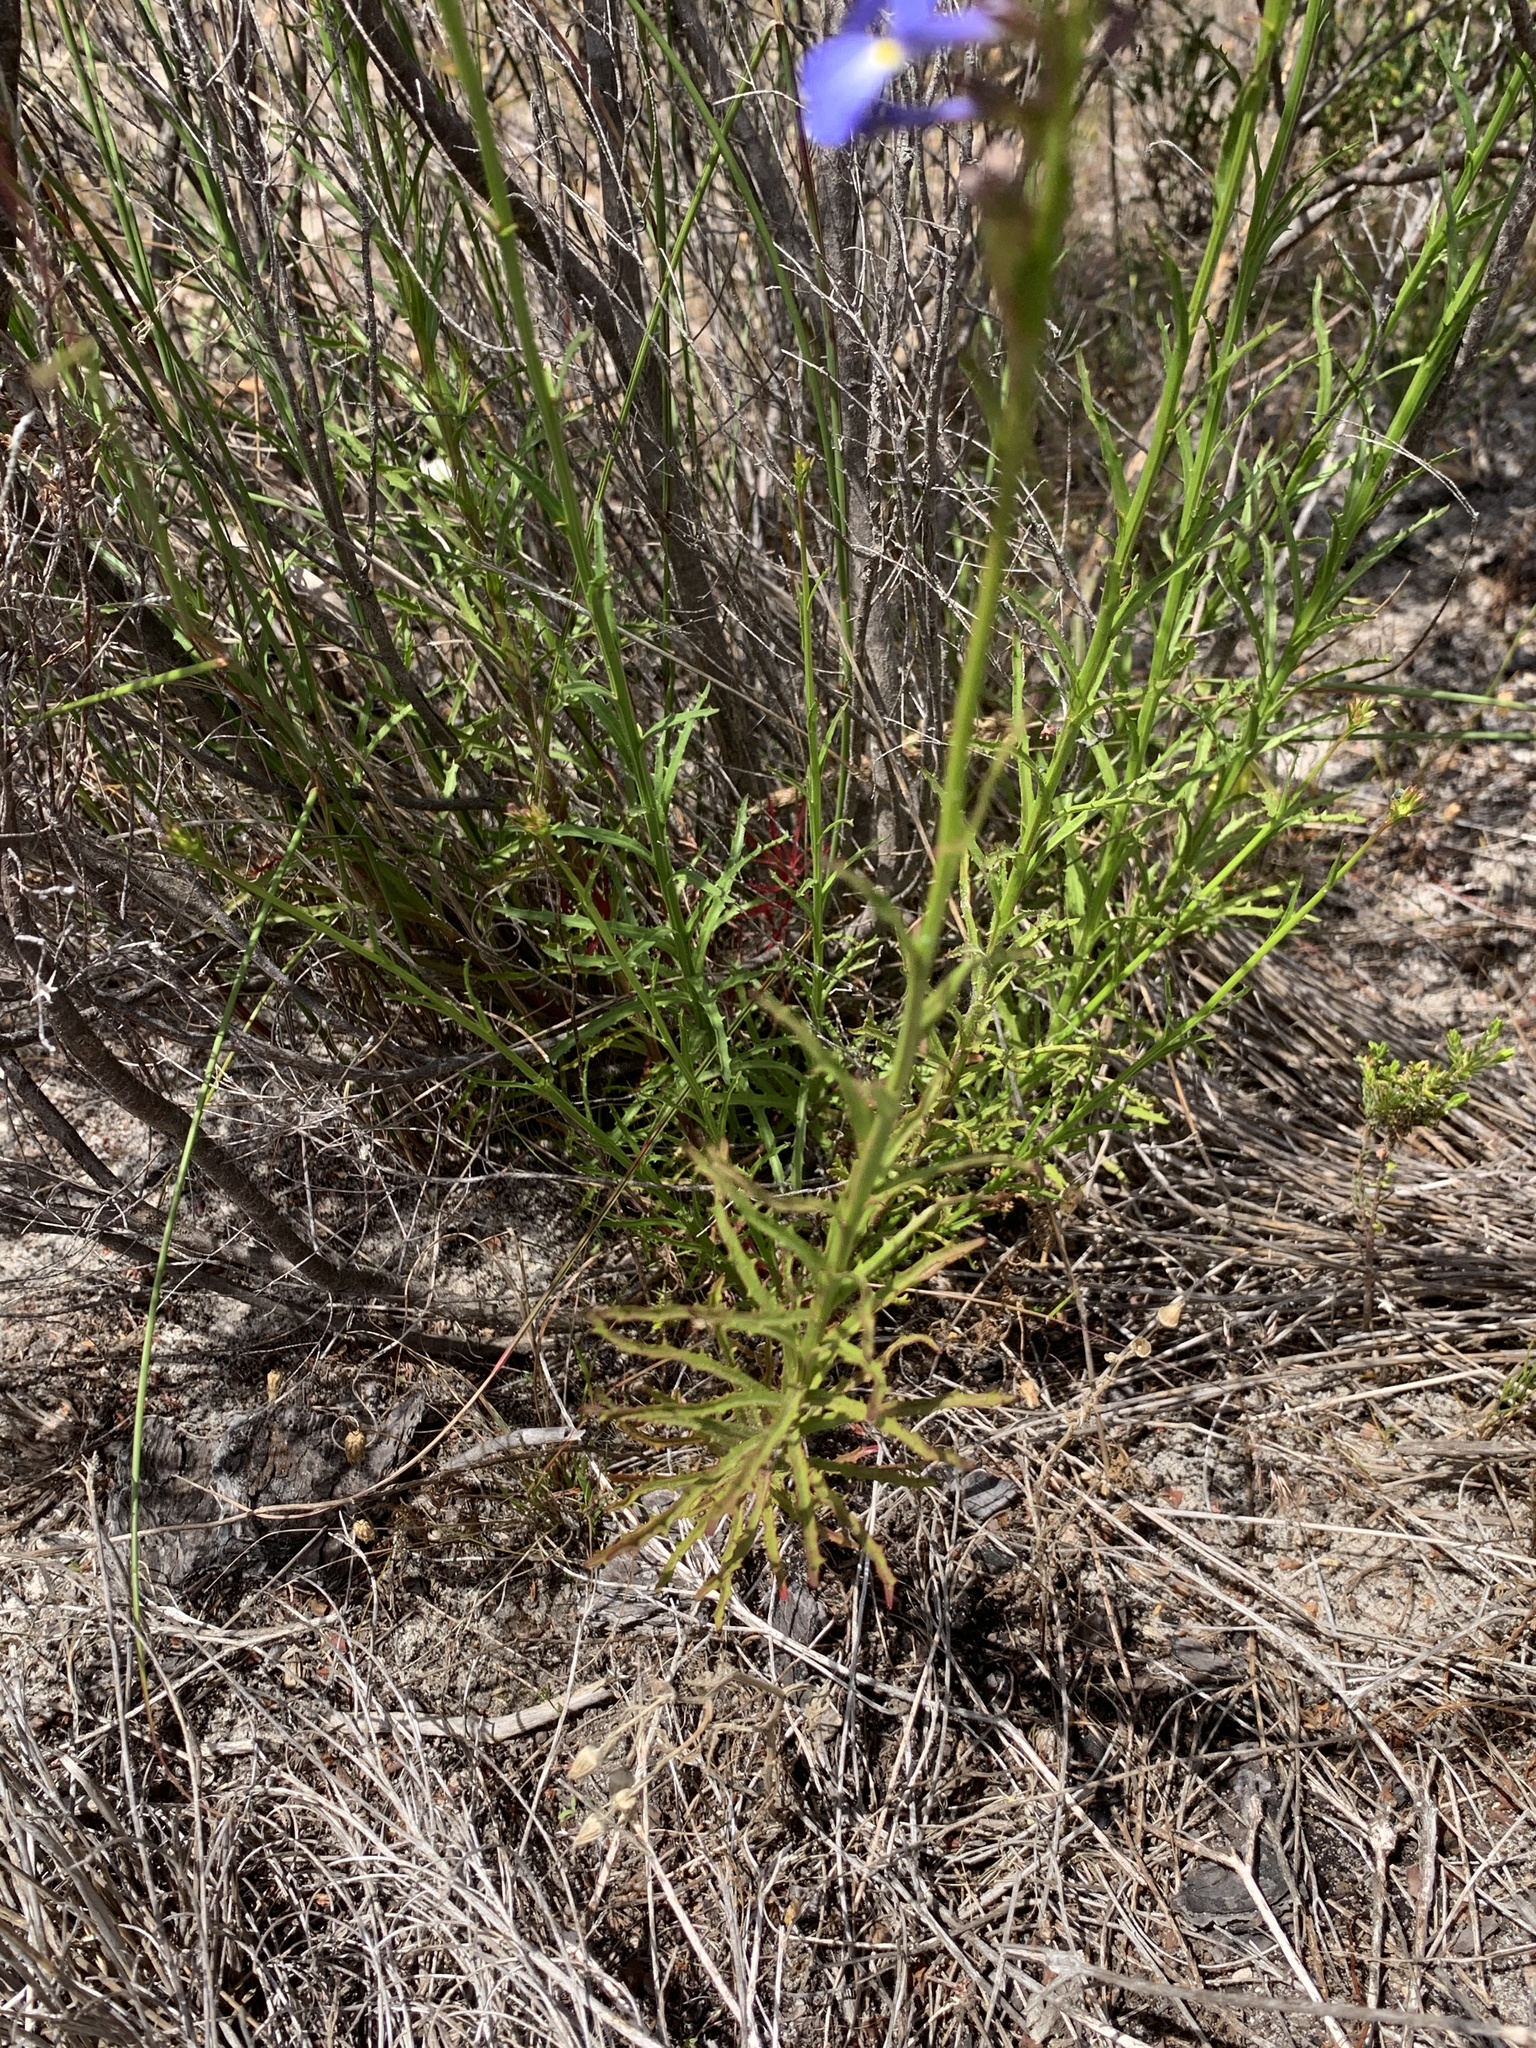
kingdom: Plantae
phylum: Tracheophyta
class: Magnoliopsida
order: Asterales
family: Campanulaceae
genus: Lobelia
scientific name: Lobelia comosa
